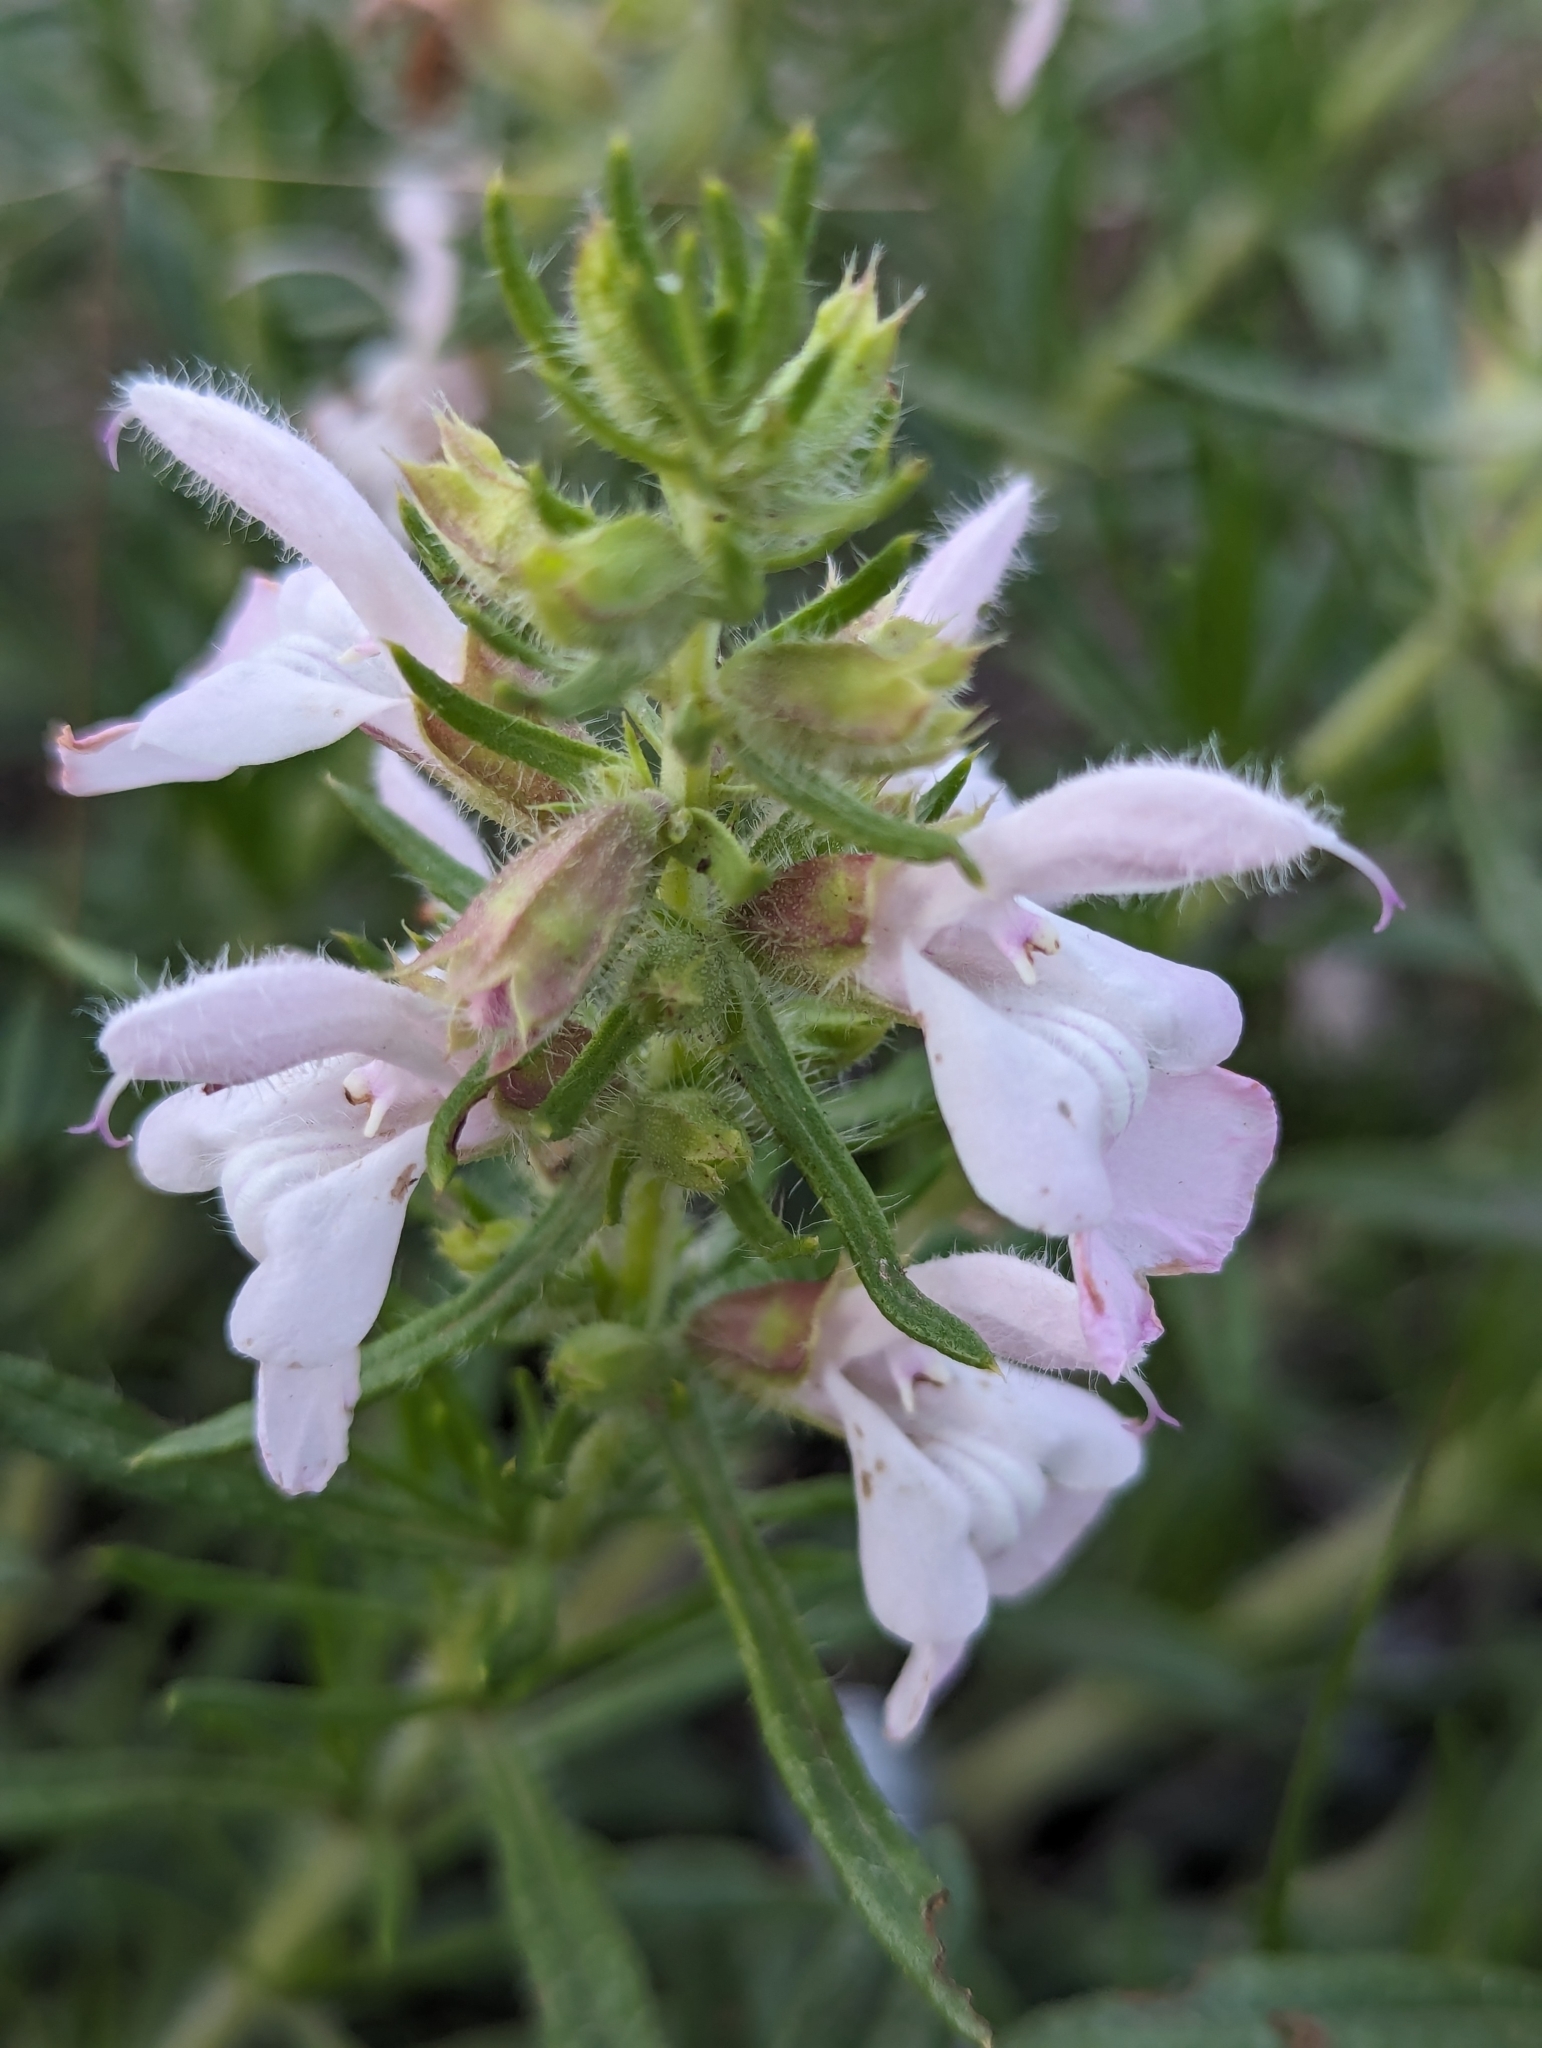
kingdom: Plantae
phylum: Tracheophyta
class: Magnoliopsida
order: Lamiales
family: Lamiaceae
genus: Salvia
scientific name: Salvia engelmannii
